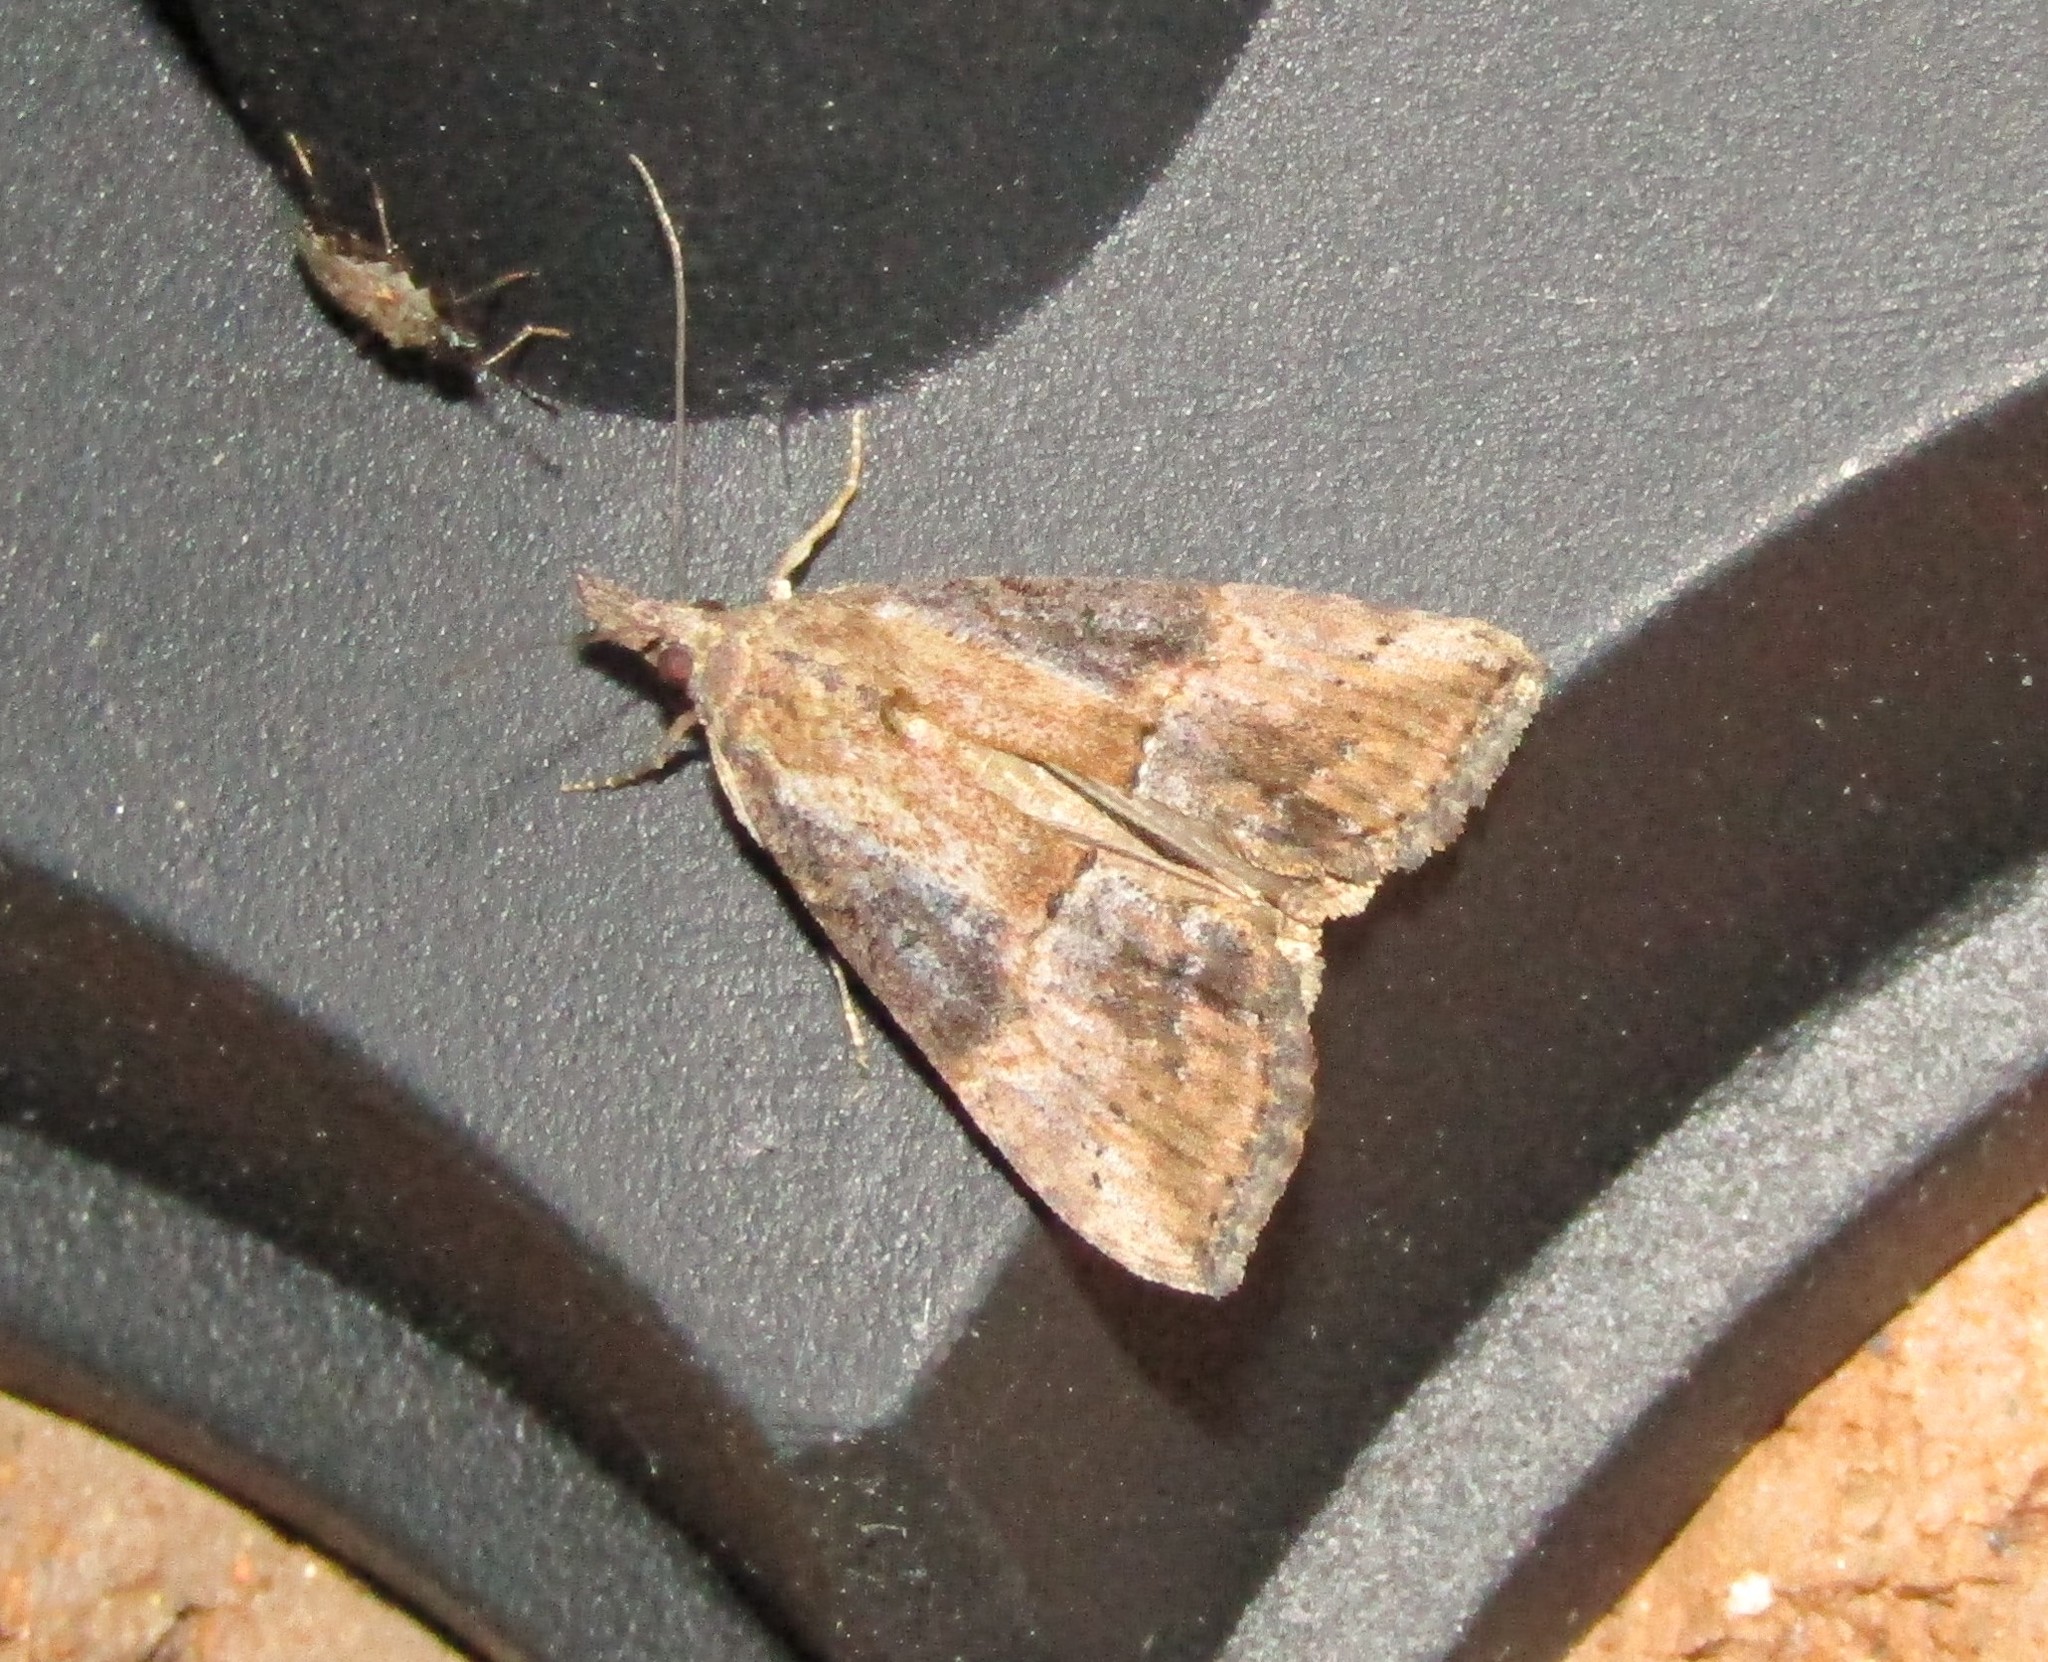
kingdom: Animalia
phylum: Arthropoda
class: Insecta
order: Lepidoptera
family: Erebidae
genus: Hypena
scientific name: Hypena scabra
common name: Green cloverworm
